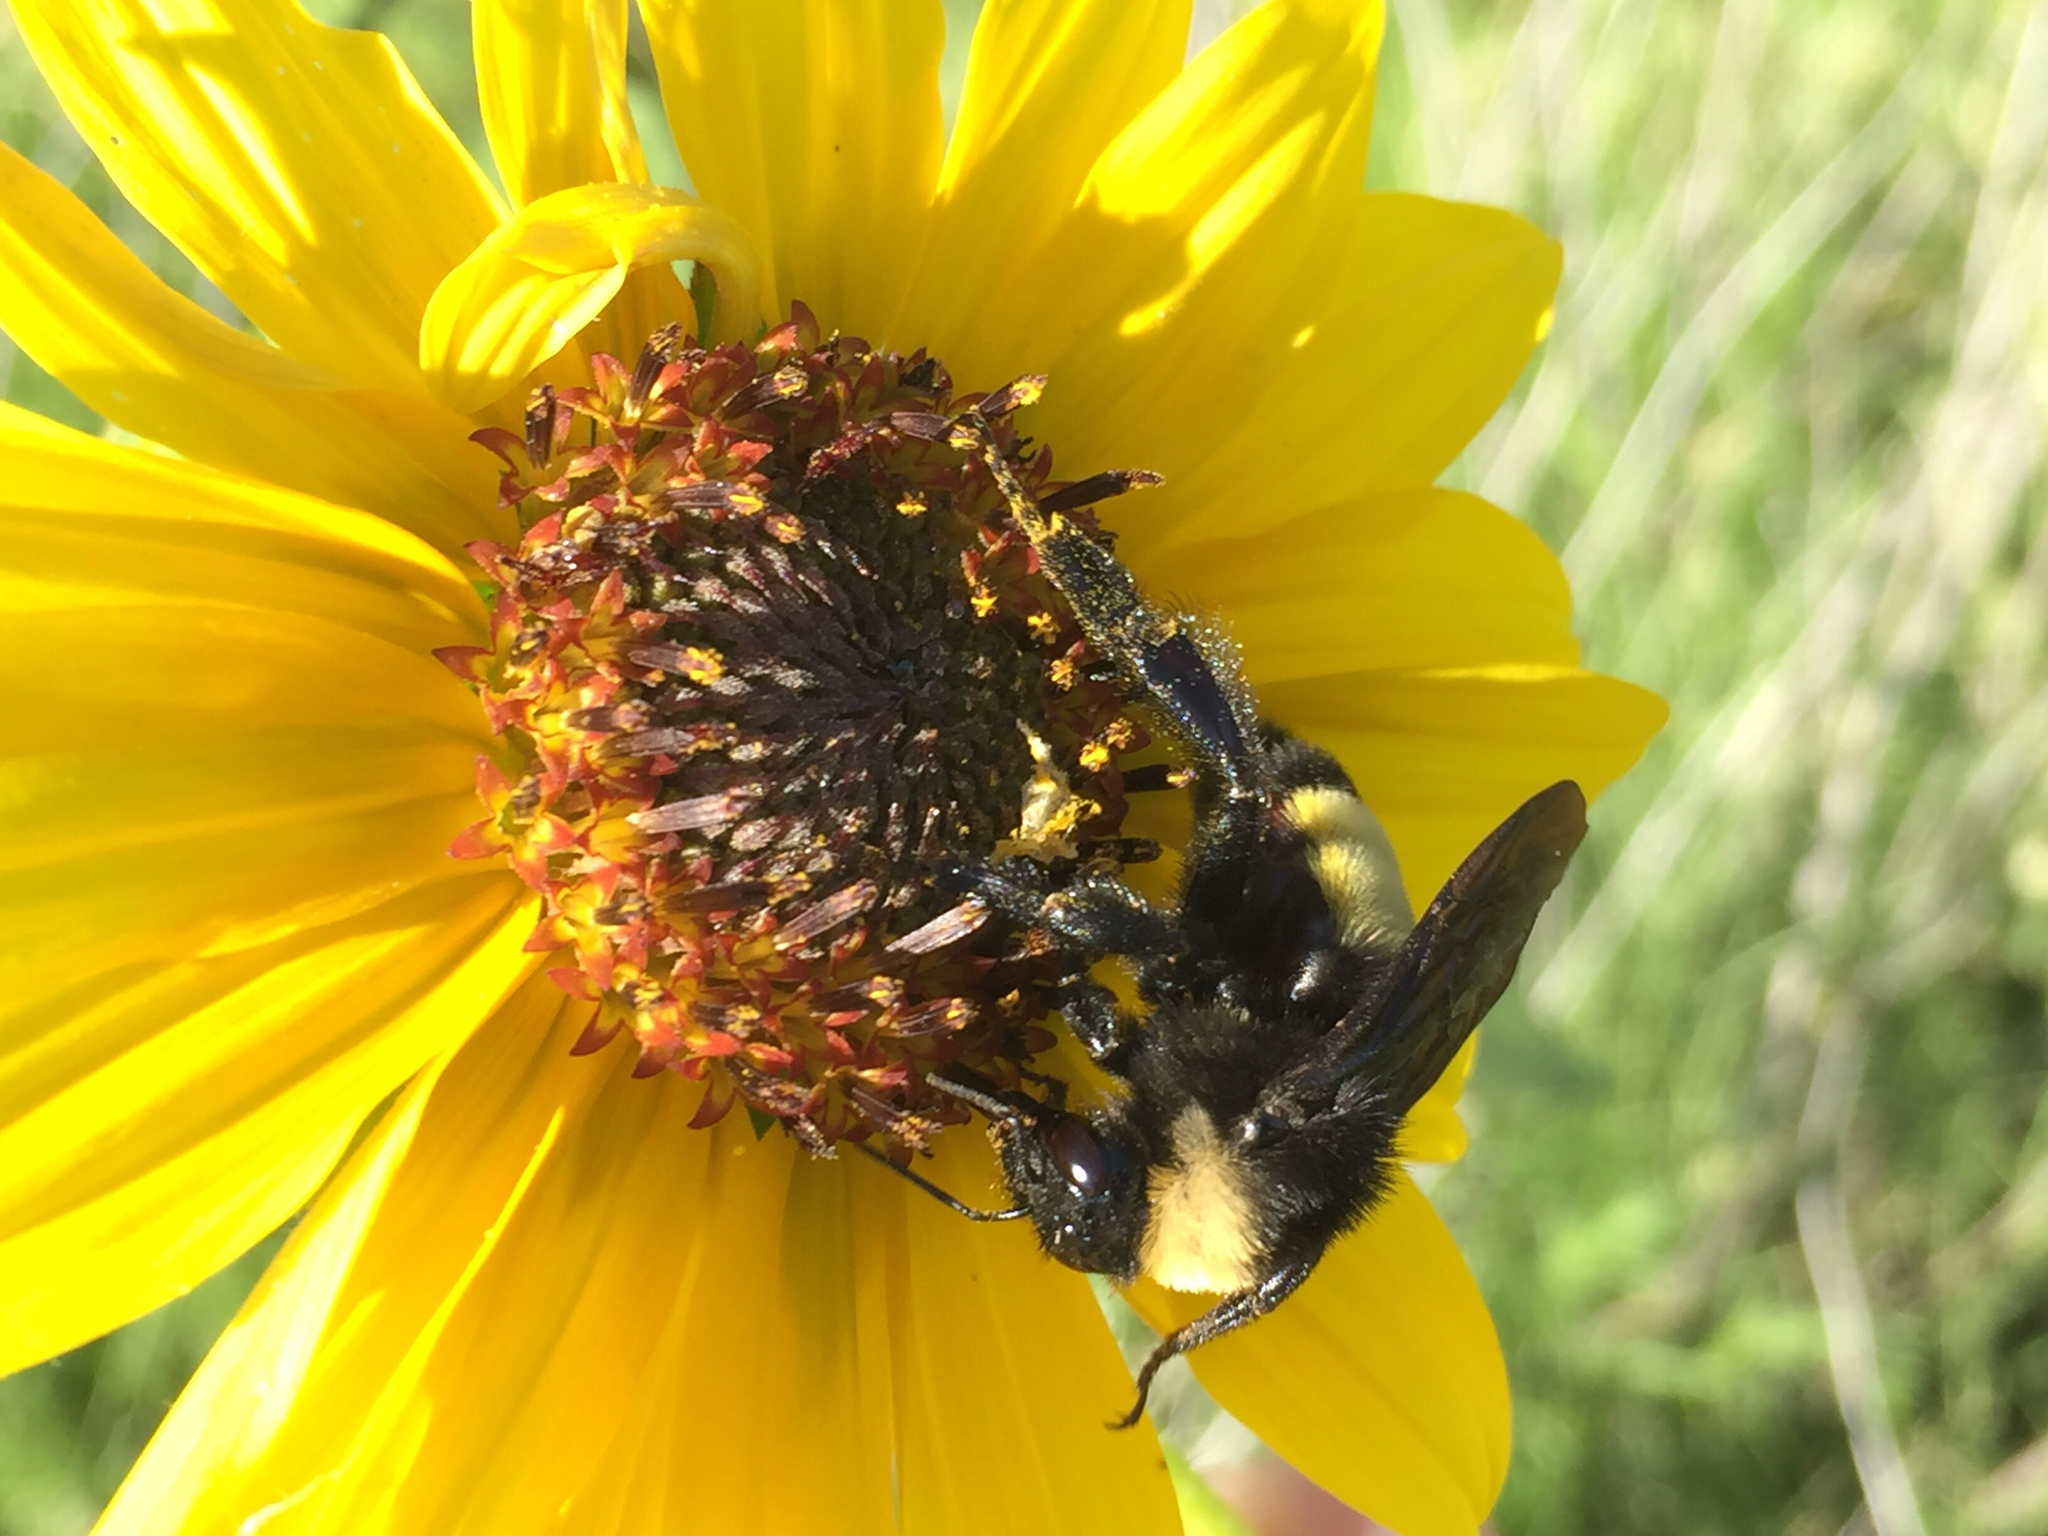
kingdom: Animalia
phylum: Arthropoda
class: Insecta
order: Hymenoptera
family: Apidae
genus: Bombus
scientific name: Bombus pensylvanicus
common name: Bumble bee
